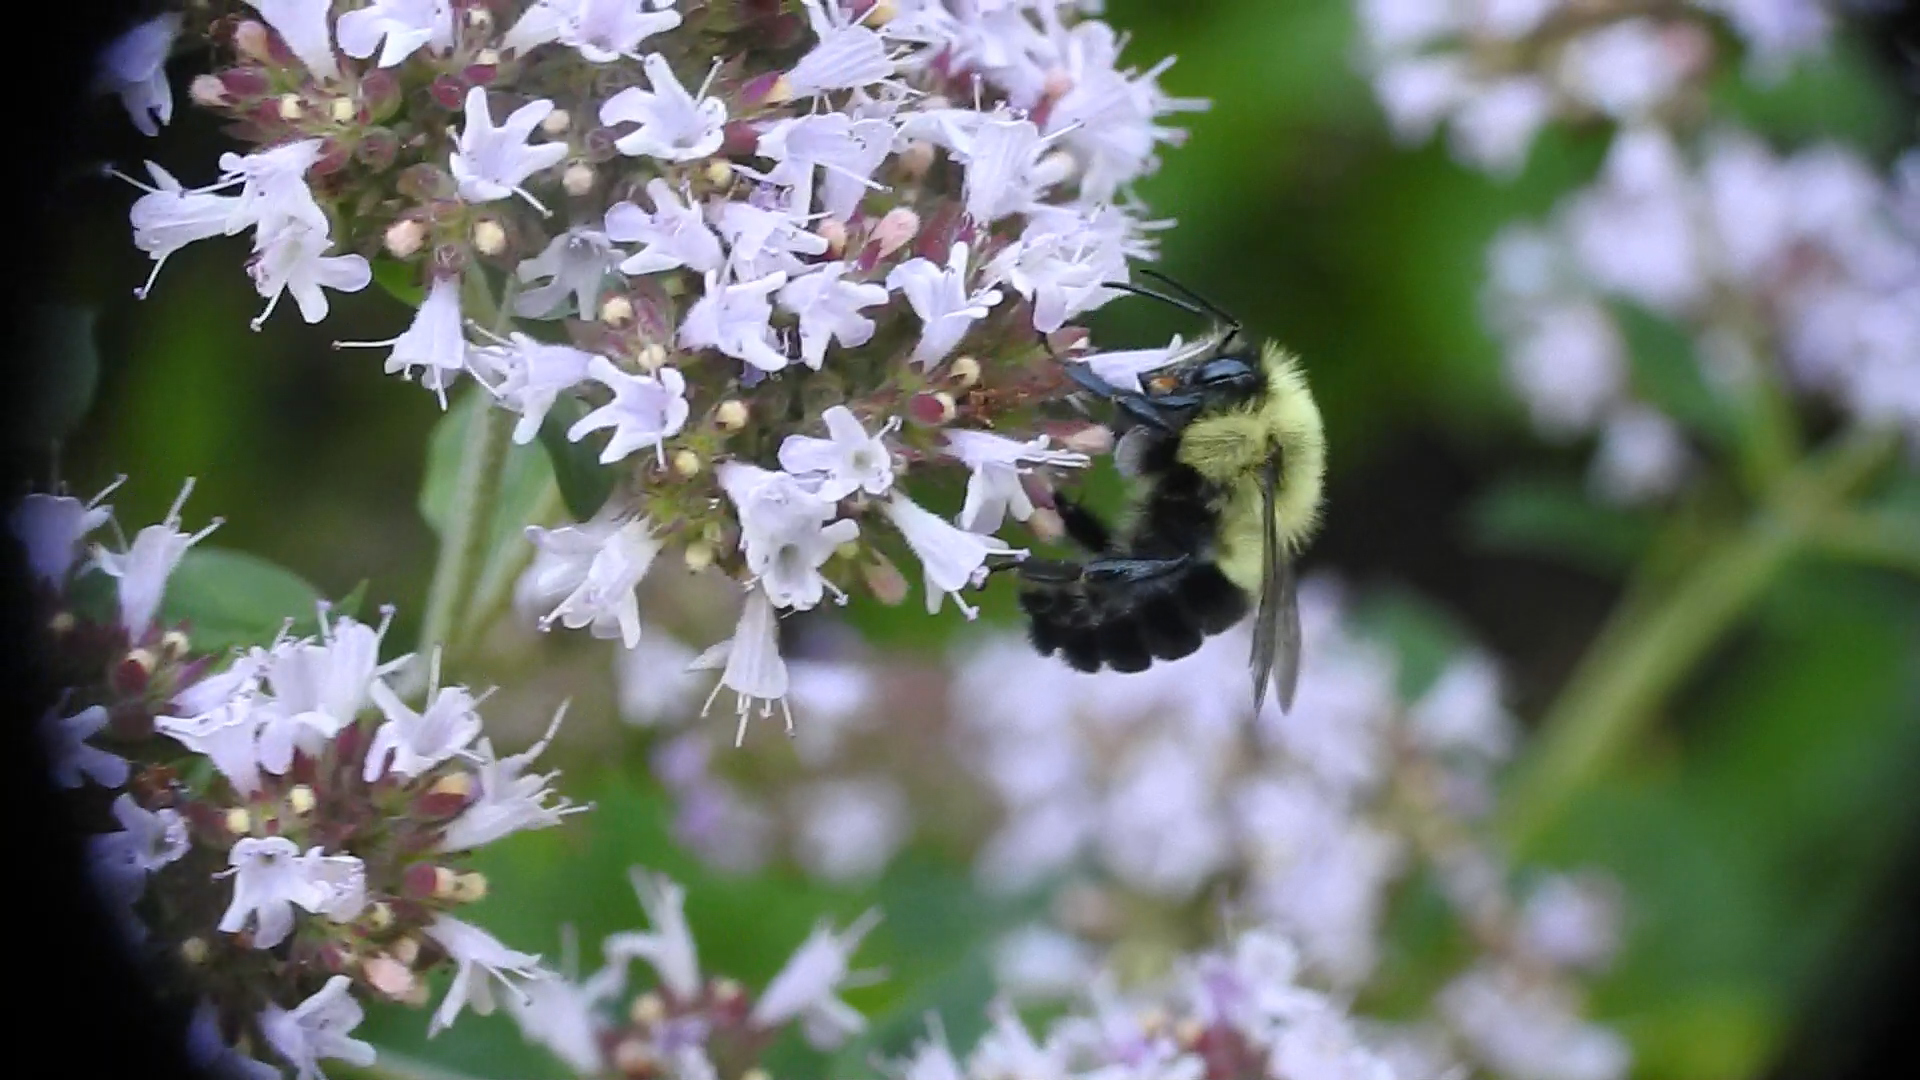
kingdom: Animalia
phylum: Arthropoda
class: Insecta
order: Hymenoptera
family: Apidae
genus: Bombus
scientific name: Bombus impatiens
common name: Common eastern bumble bee
